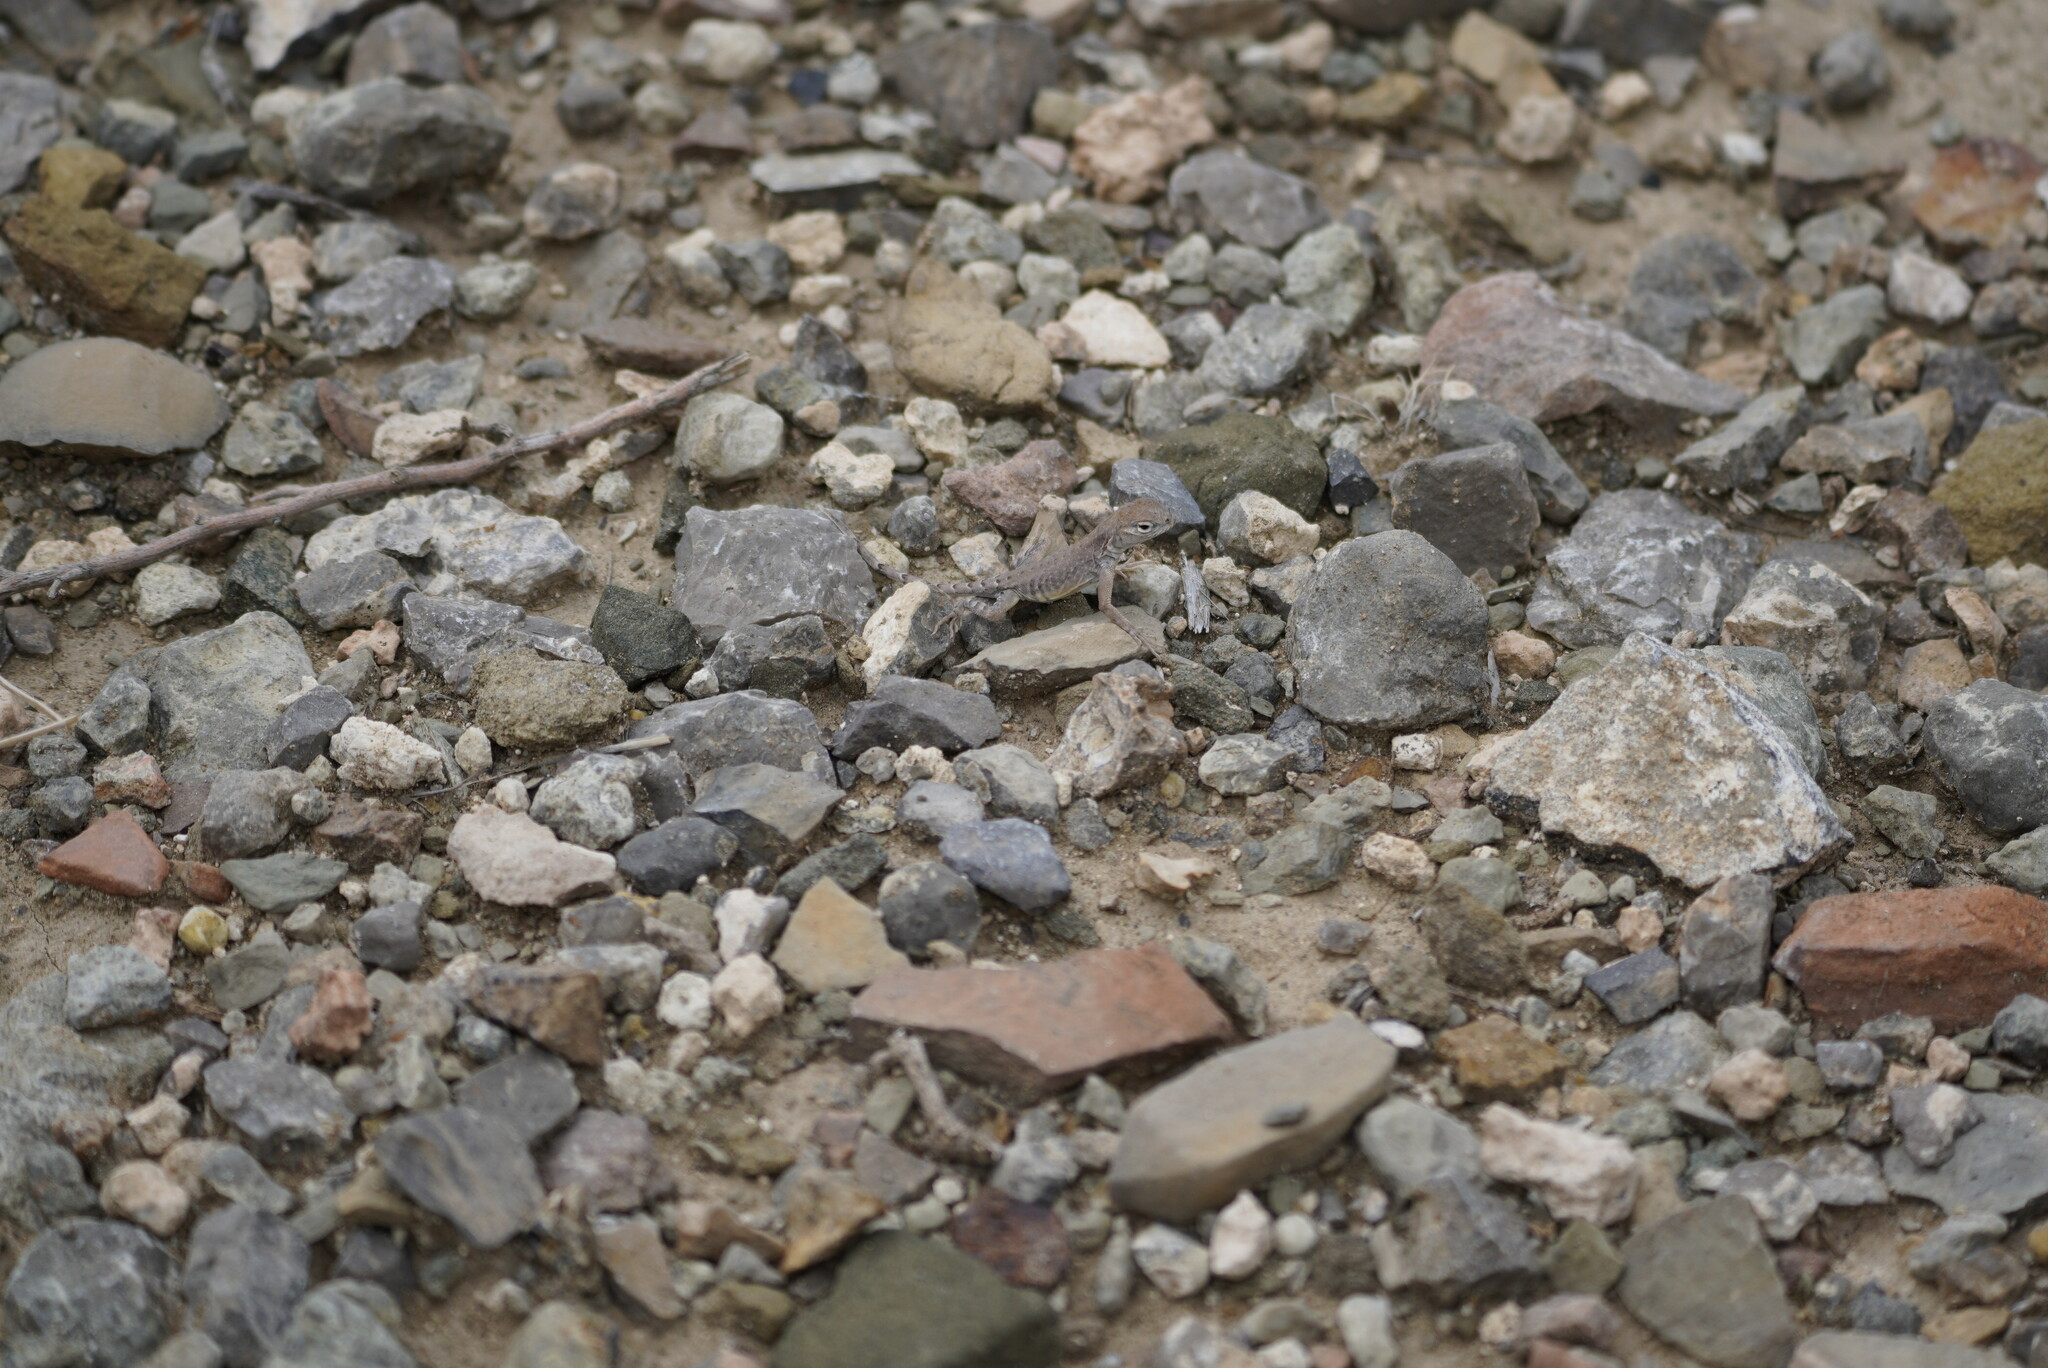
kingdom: Animalia
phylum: Chordata
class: Squamata
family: Phrynosomatidae
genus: Cophosaurus
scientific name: Cophosaurus texanus
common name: Greater earless lizard
